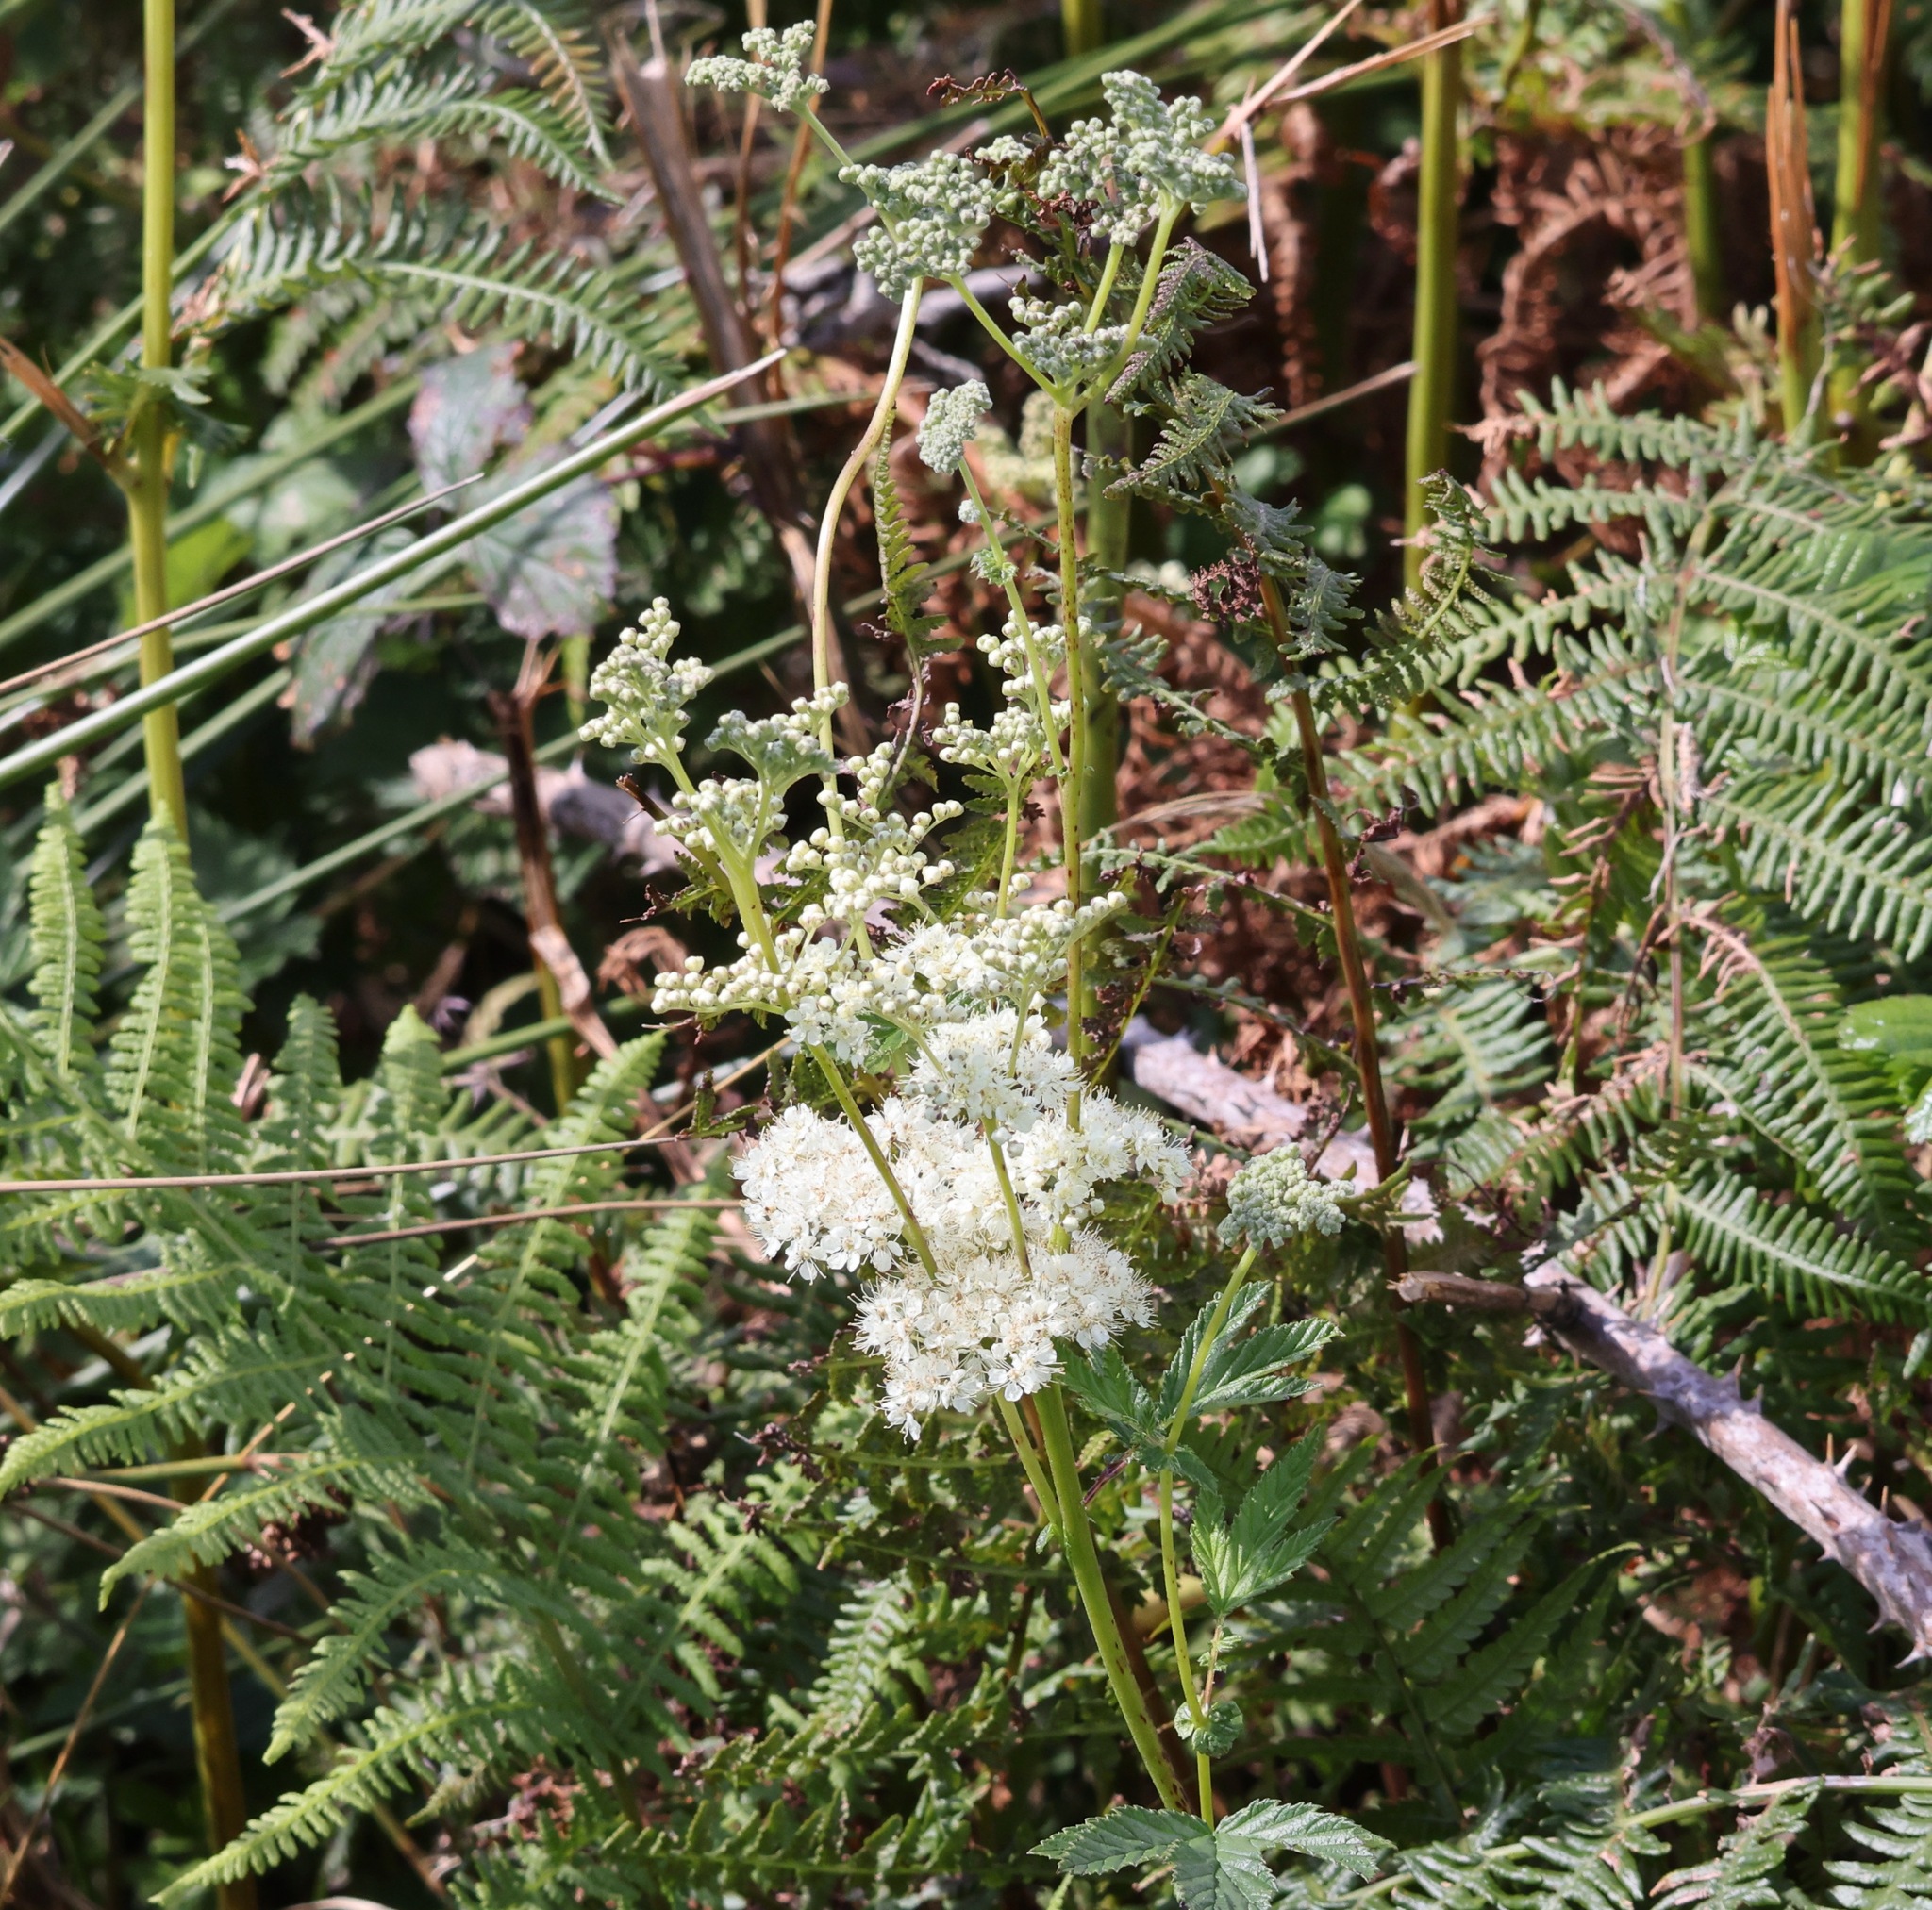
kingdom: Plantae
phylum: Tracheophyta
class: Magnoliopsida
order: Rosales
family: Rosaceae
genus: Filipendula
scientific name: Filipendula ulmaria
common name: Meadowsweet
